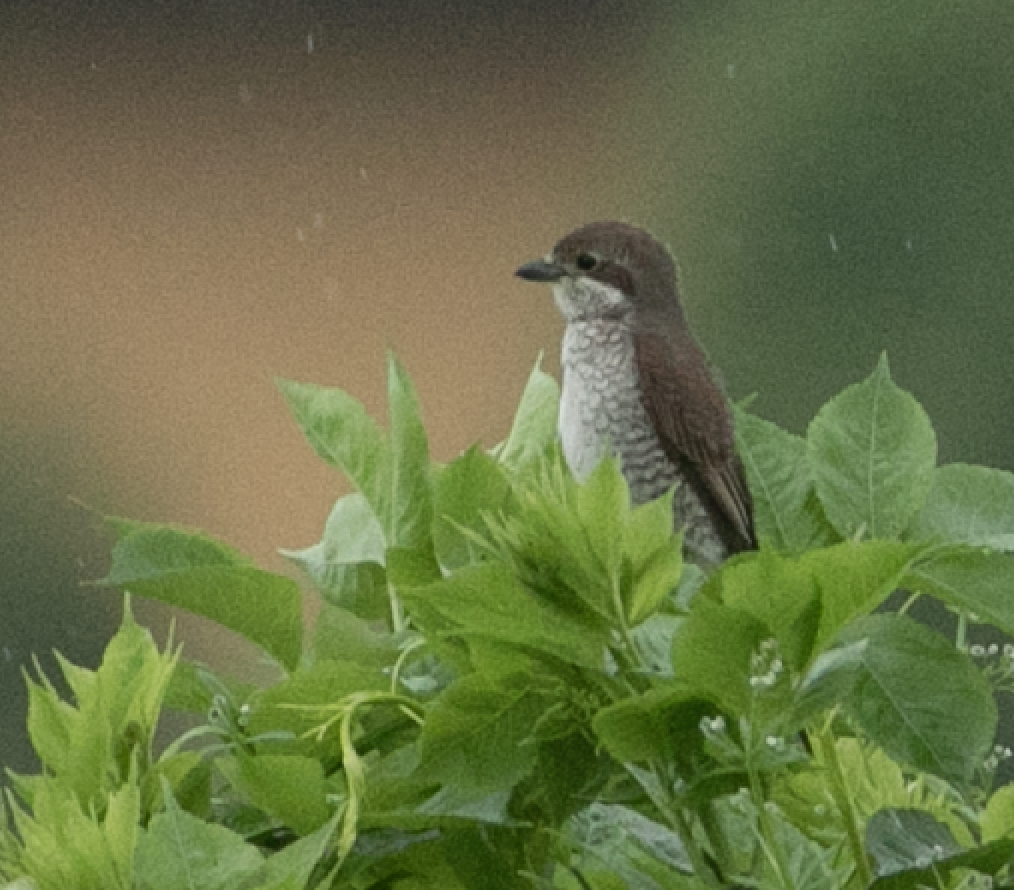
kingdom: Animalia
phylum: Chordata
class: Aves
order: Passeriformes
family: Laniidae
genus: Lanius
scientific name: Lanius collurio
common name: Red-backed shrike
